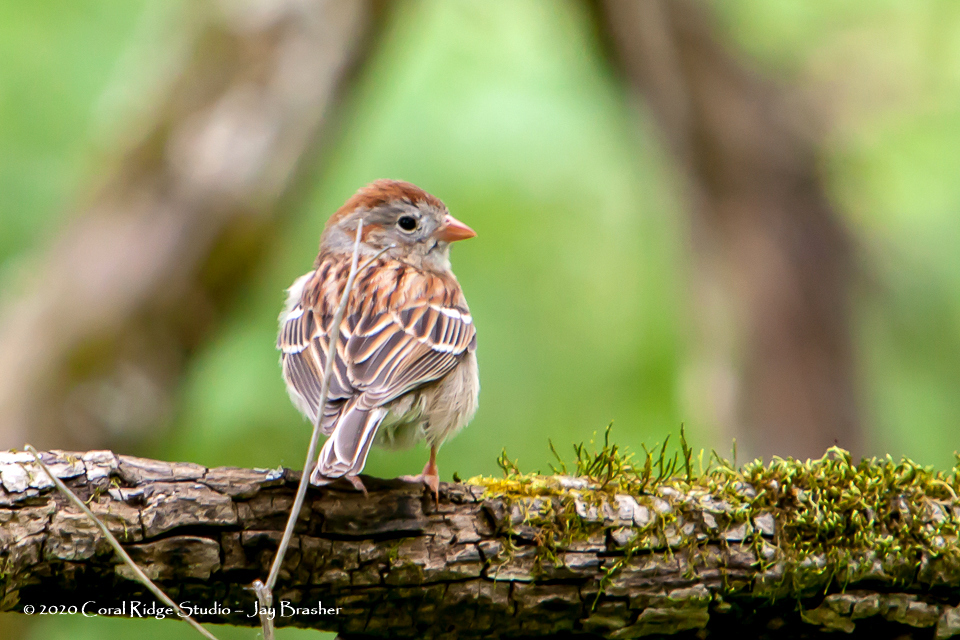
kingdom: Animalia
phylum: Chordata
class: Aves
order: Passeriformes
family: Passerellidae
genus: Spizella
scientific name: Spizella pusilla
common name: Field sparrow
